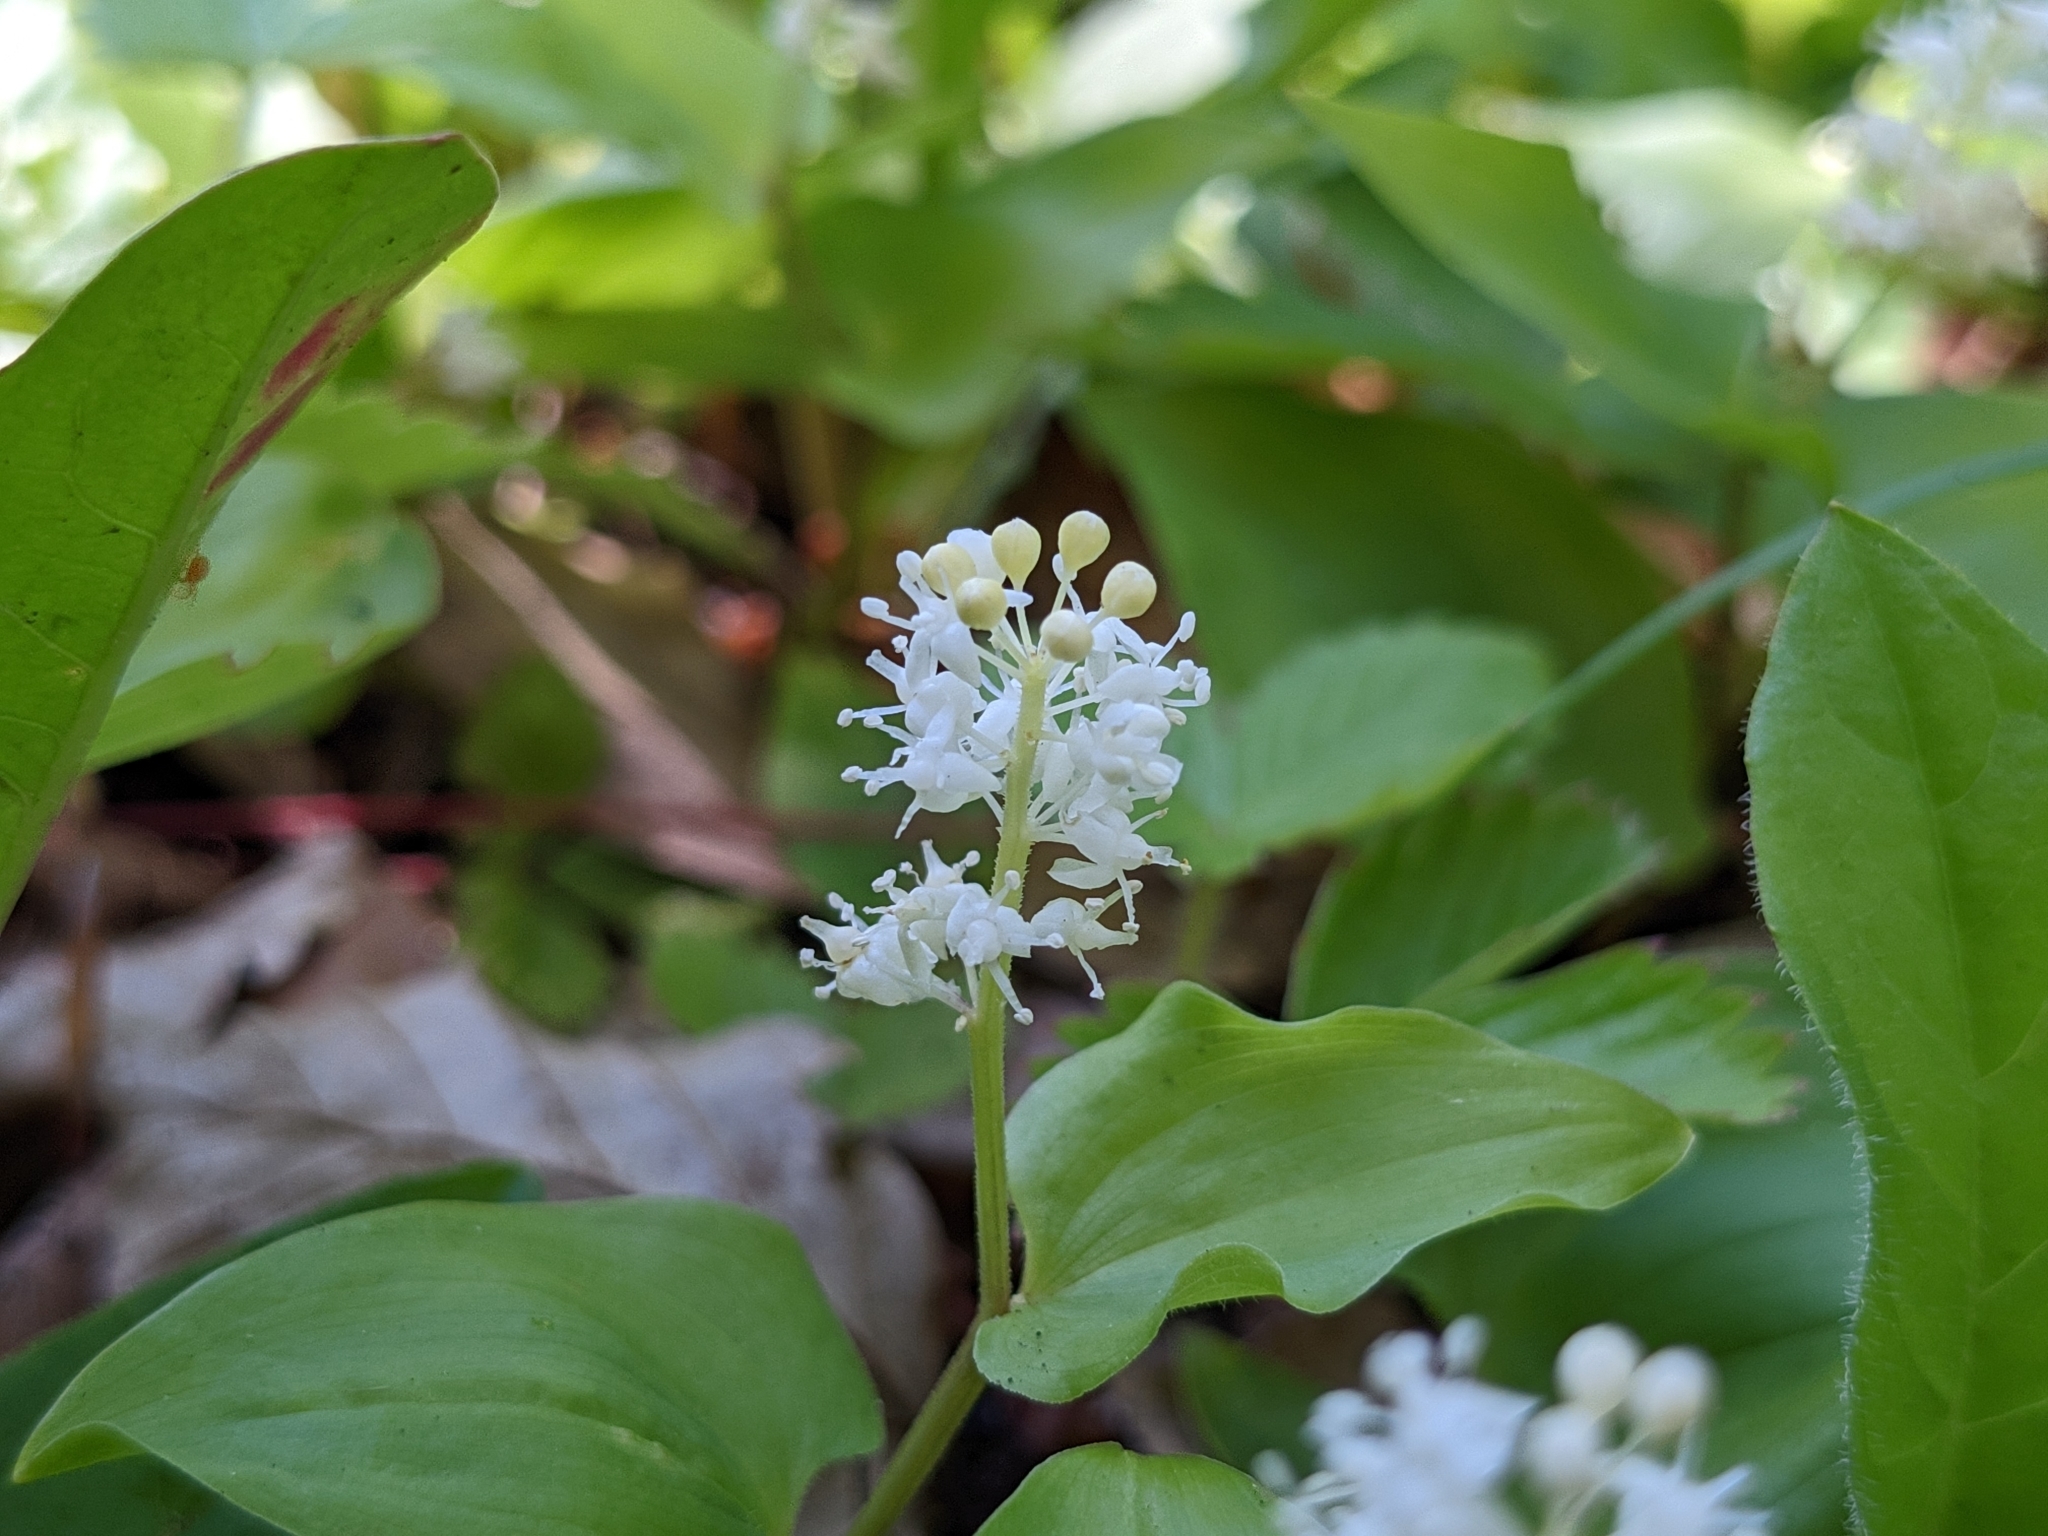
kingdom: Plantae
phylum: Tracheophyta
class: Liliopsida
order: Asparagales
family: Asparagaceae
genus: Maianthemum
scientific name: Maianthemum bifolium
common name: May lily
